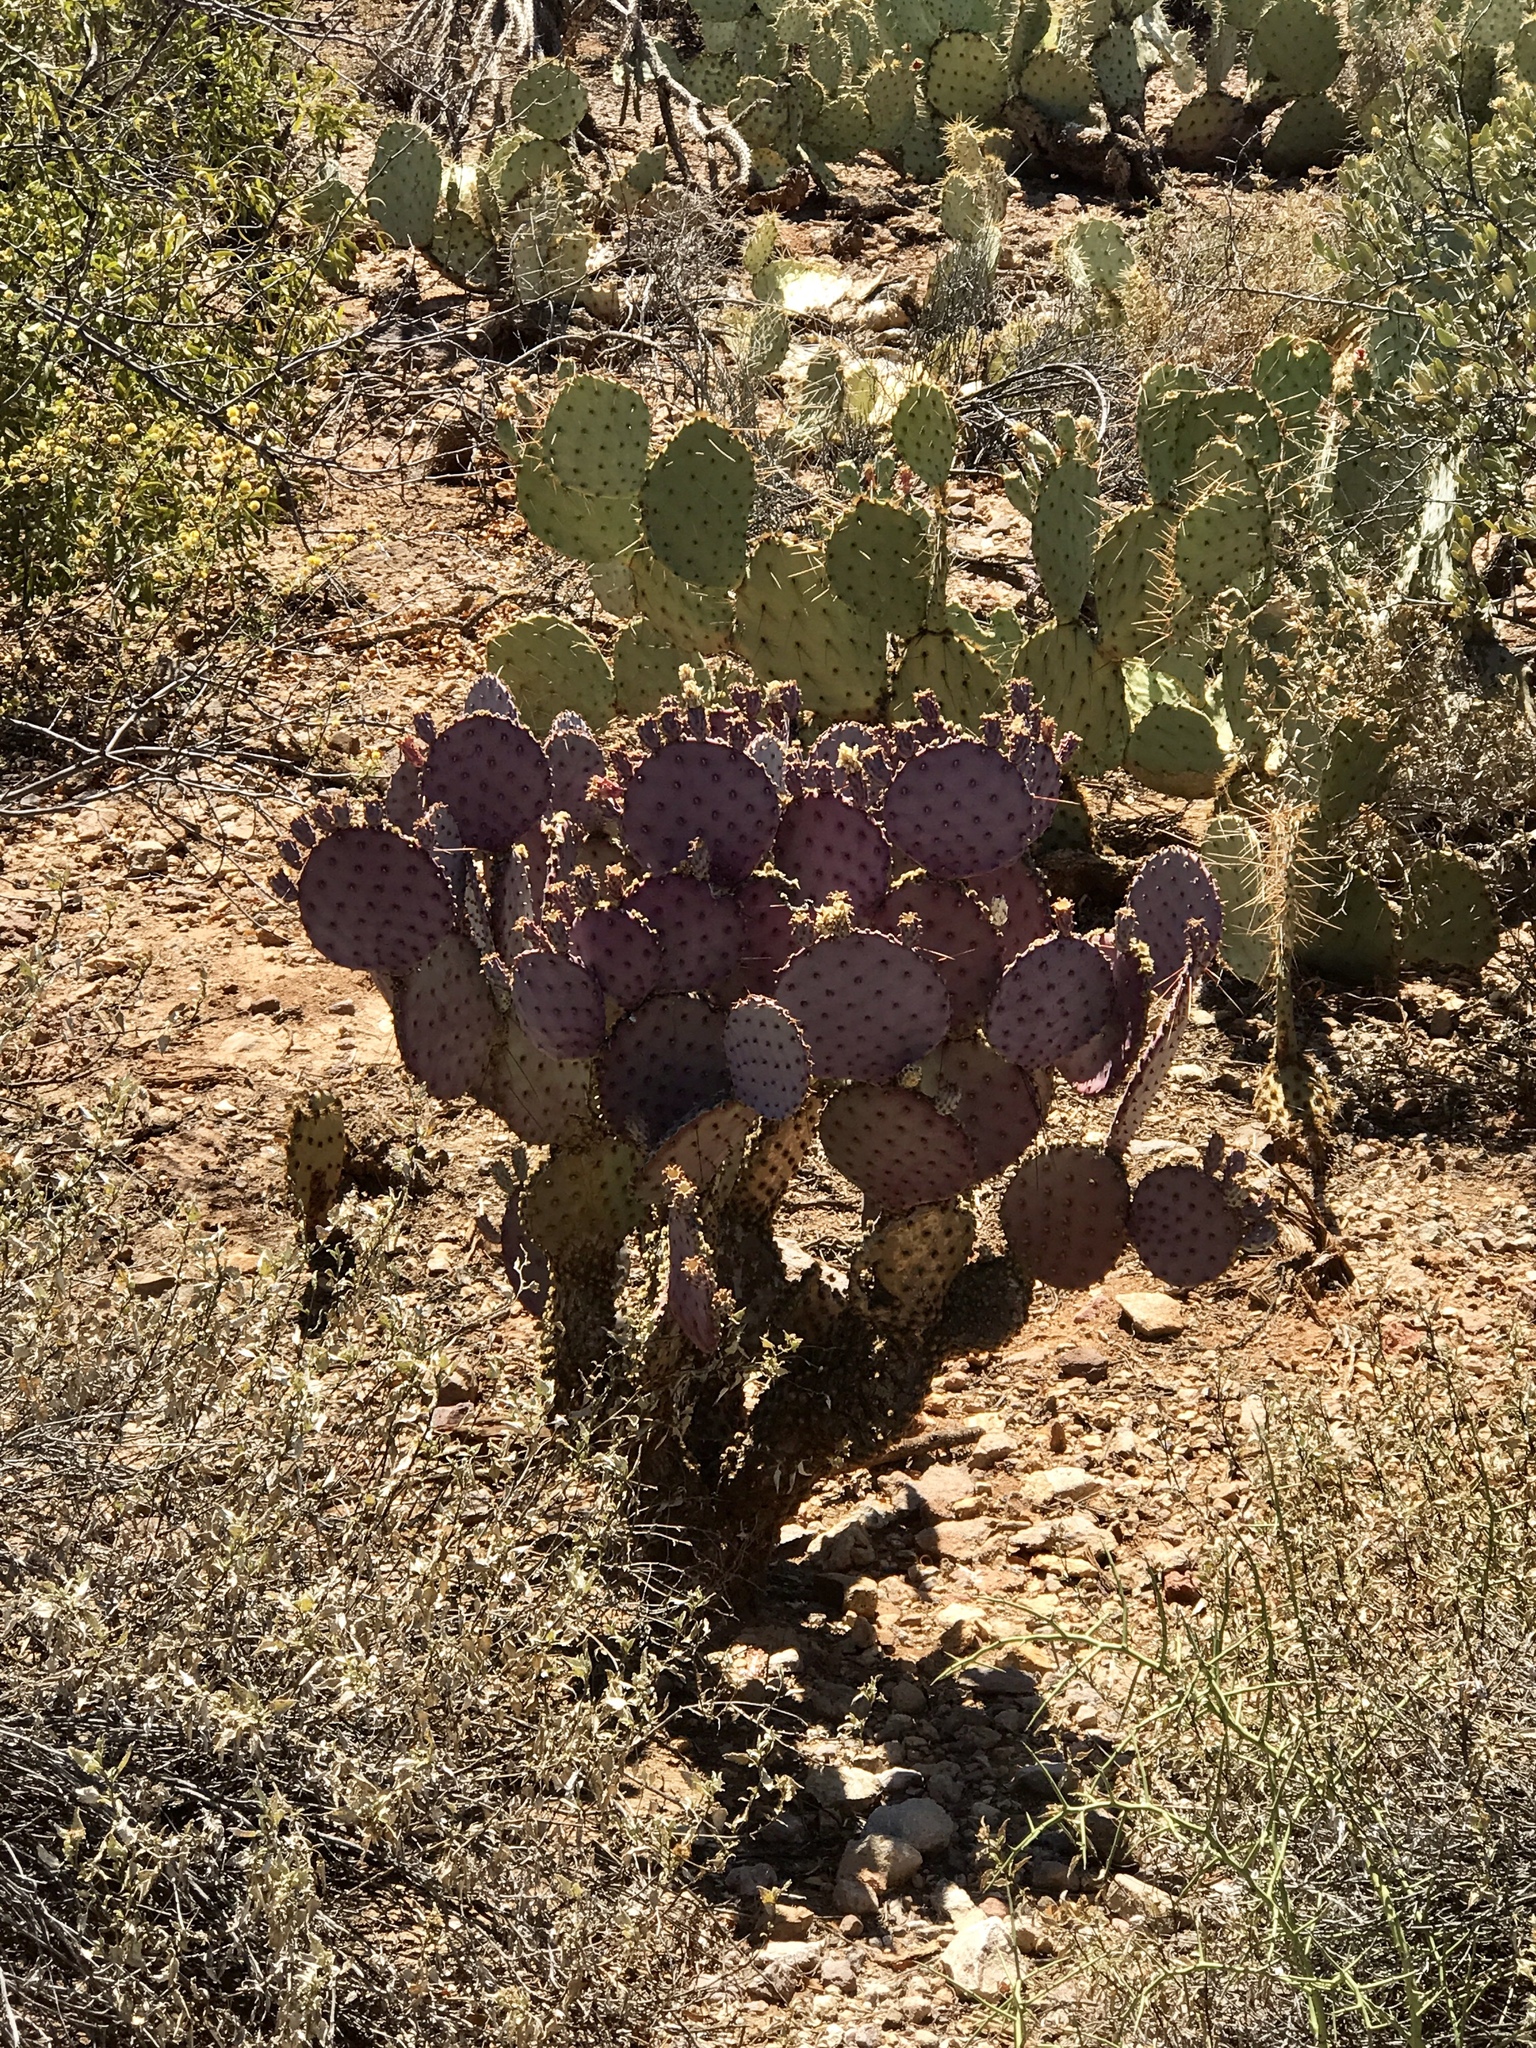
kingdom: Plantae
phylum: Tracheophyta
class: Magnoliopsida
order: Caryophyllales
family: Cactaceae
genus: Opuntia
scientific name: Opuntia gosseliniana
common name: Violet prickly-pear
